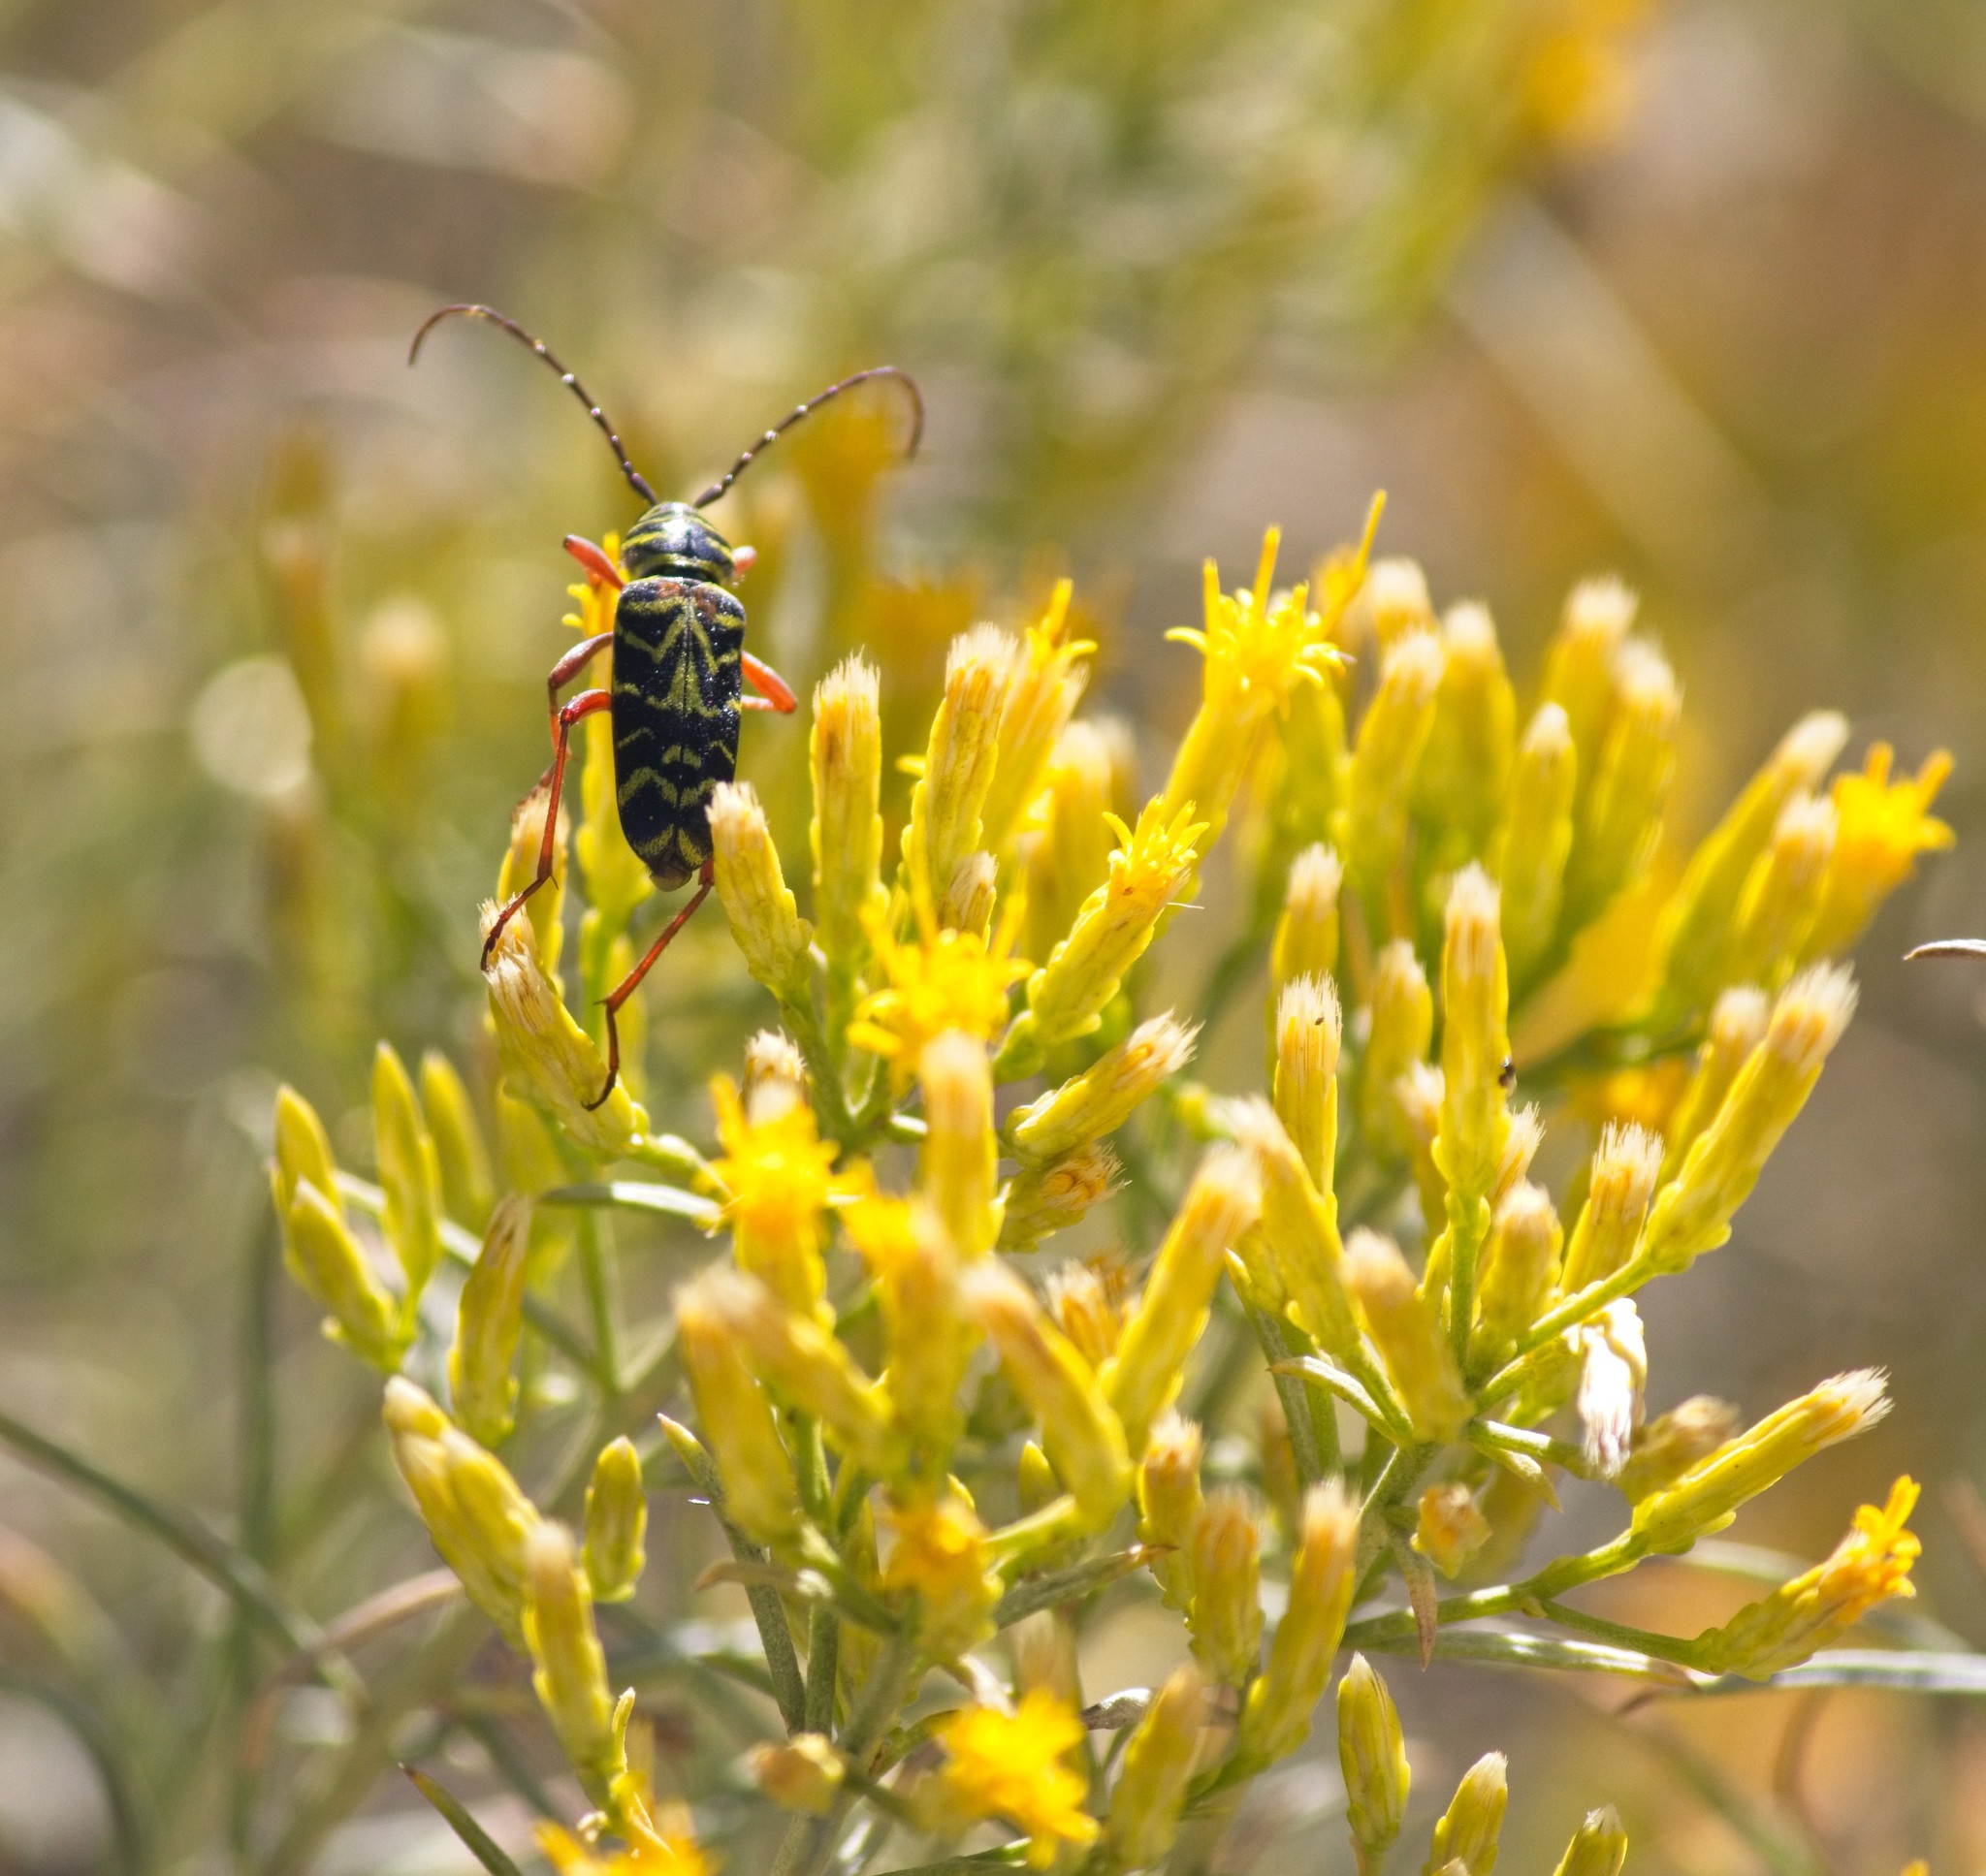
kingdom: Animalia
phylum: Arthropoda
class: Insecta
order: Coleoptera
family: Cerambycidae
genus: Megacyllene
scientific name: Megacyllene robiniae
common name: Locust borer
